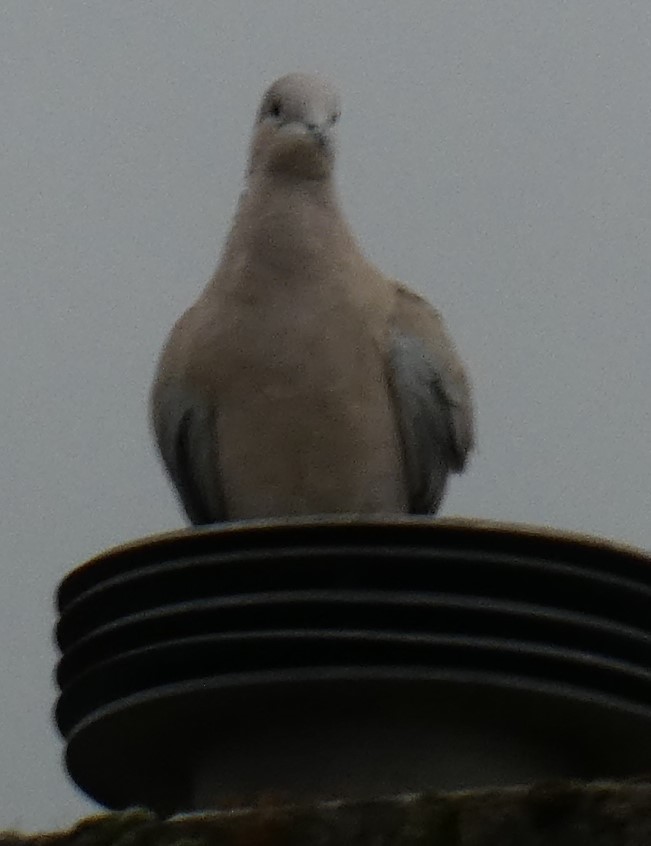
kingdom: Animalia
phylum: Chordata
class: Aves
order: Columbiformes
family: Columbidae
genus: Streptopelia
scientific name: Streptopelia decaocto
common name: Eurasian collared dove
